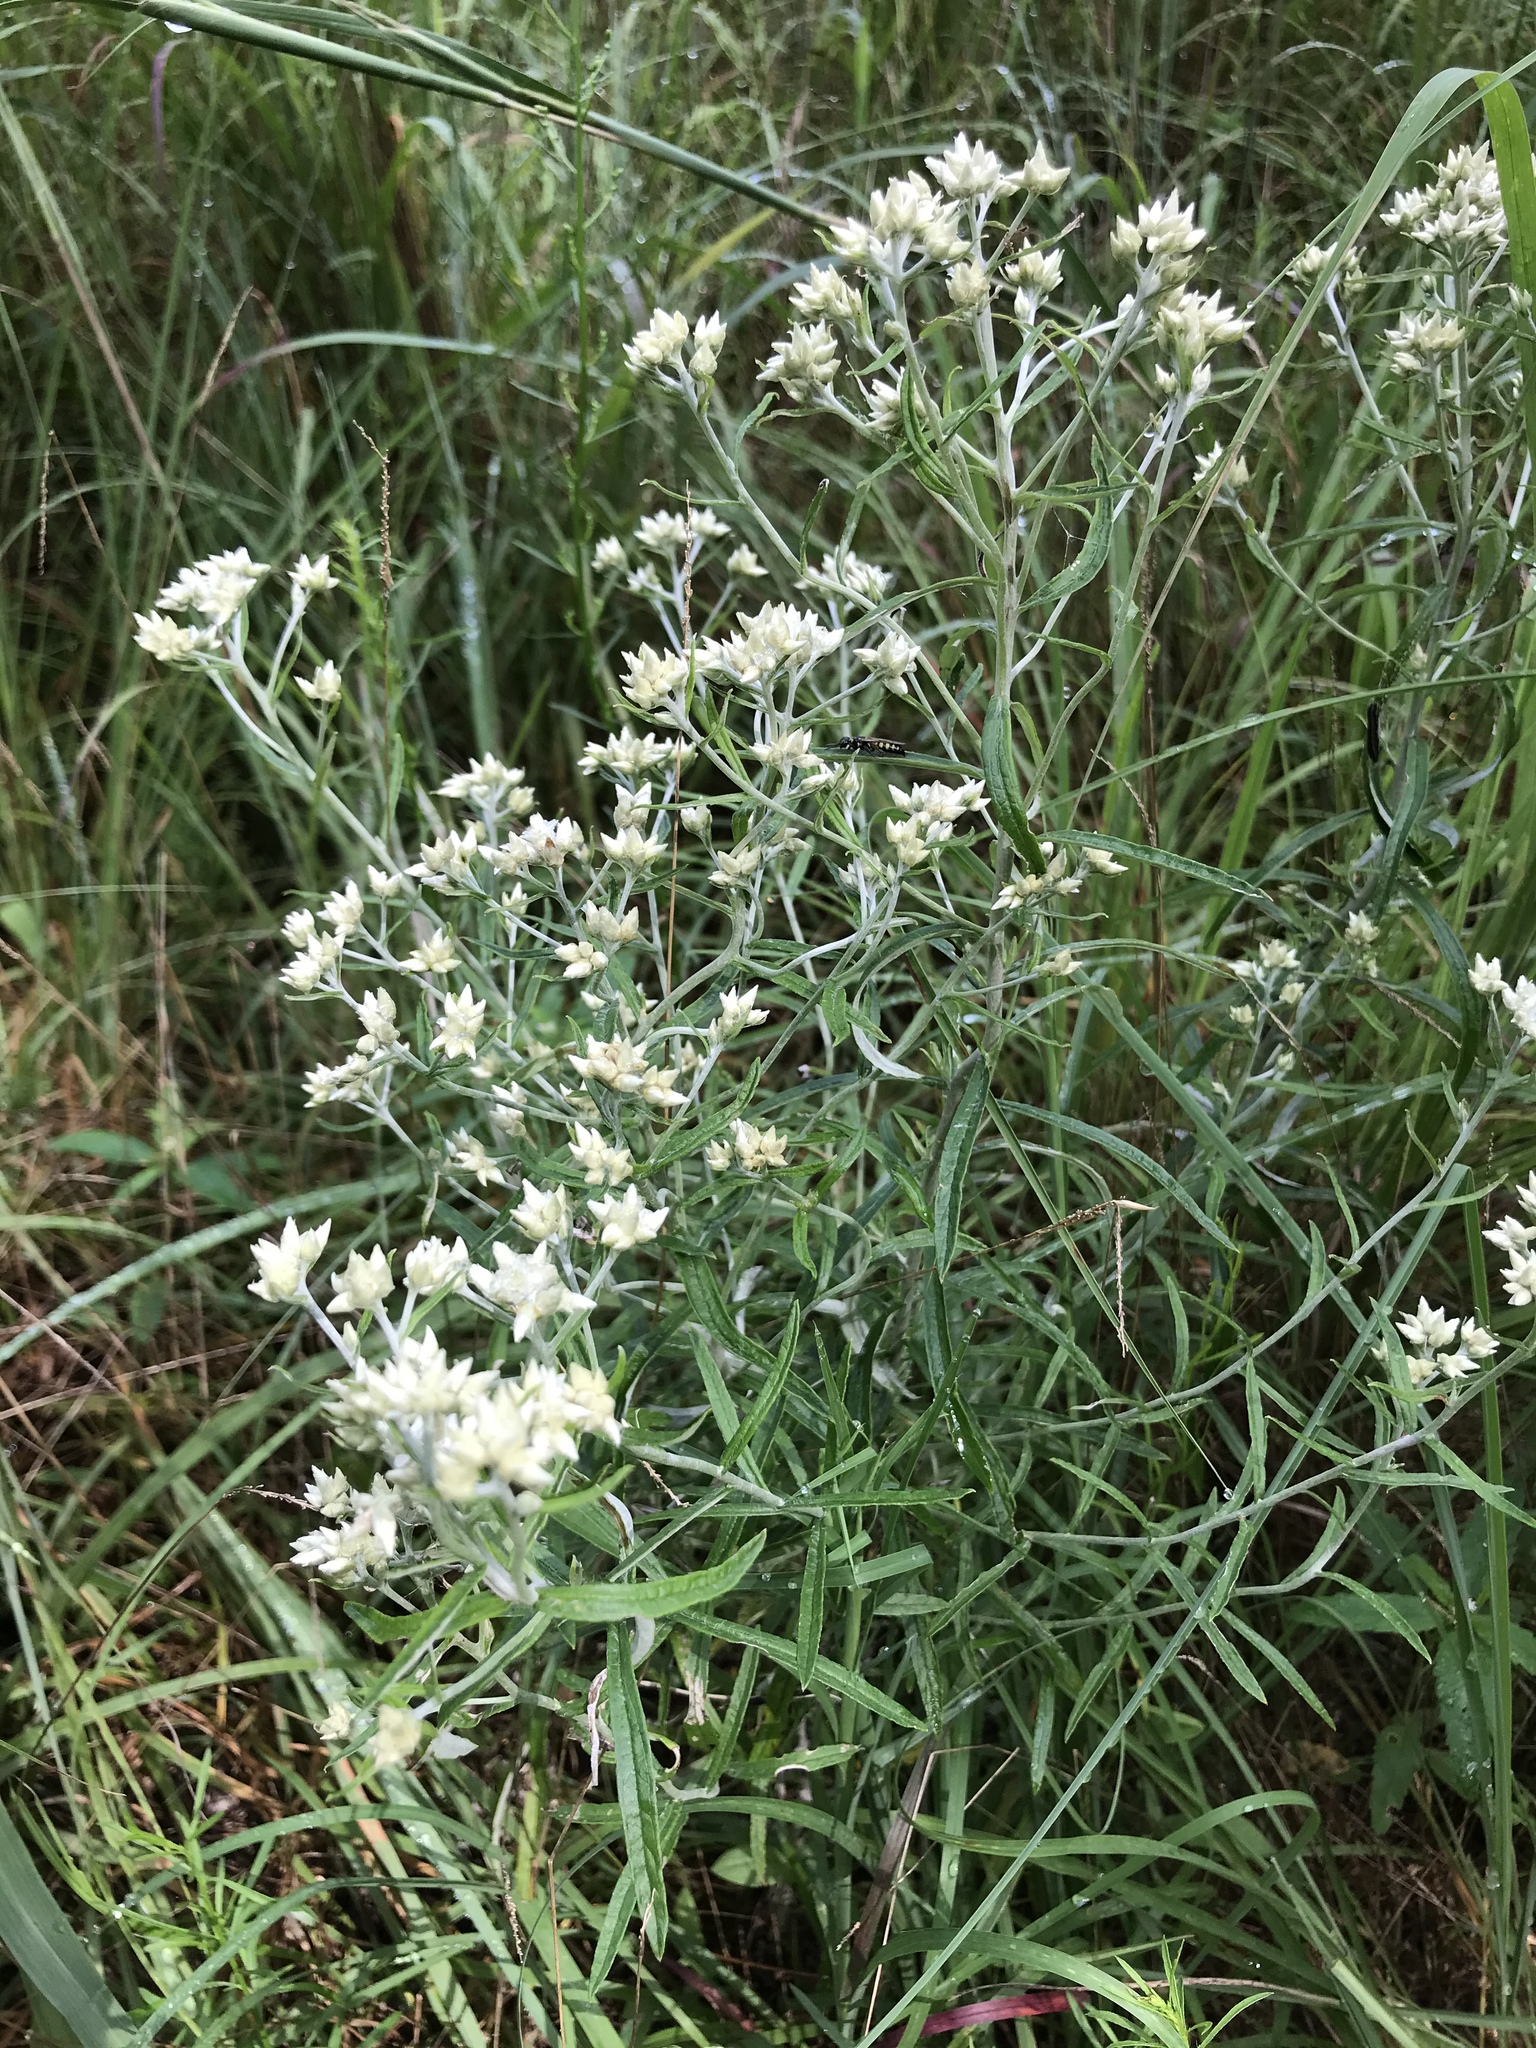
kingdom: Plantae
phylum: Tracheophyta
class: Magnoliopsida
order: Asterales
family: Asteraceae
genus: Pseudognaphalium
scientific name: Pseudognaphalium obtusifolium
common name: Eastern rabbit-tobacco
